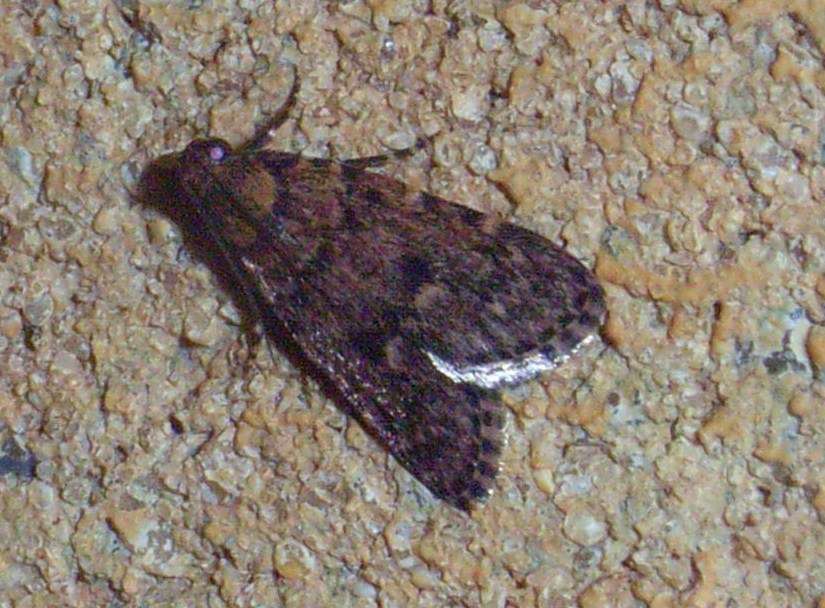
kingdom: Animalia
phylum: Arthropoda
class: Insecta
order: Lepidoptera
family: Pyralidae
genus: Mimaglossa
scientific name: Mimaglossa nauplialis
